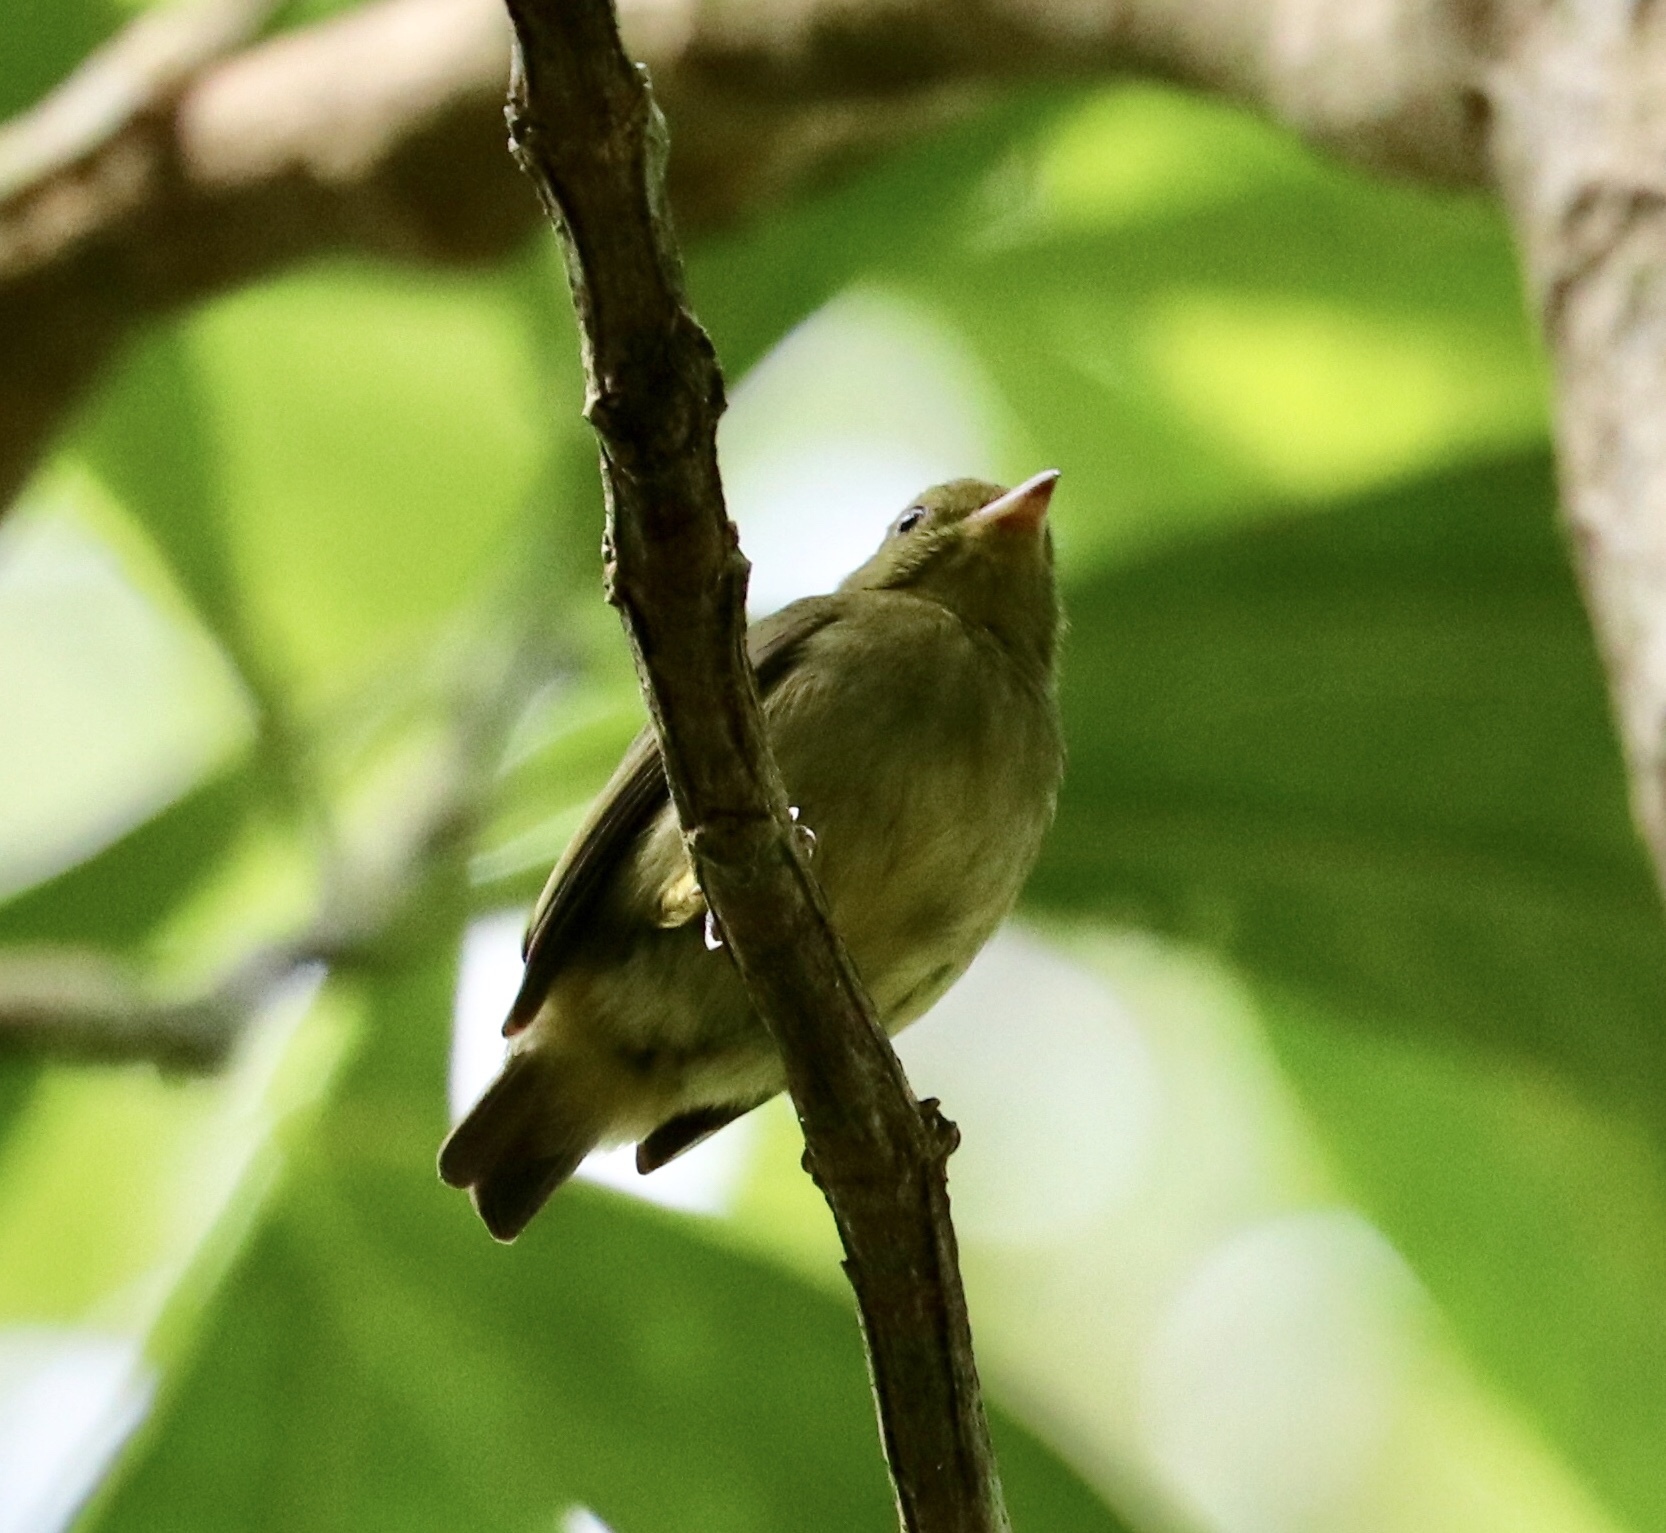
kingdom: Animalia
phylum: Chordata
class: Aves
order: Passeriformes
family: Pipridae
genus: Pipra
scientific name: Pipra mentalis
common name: Red-capped manakin
